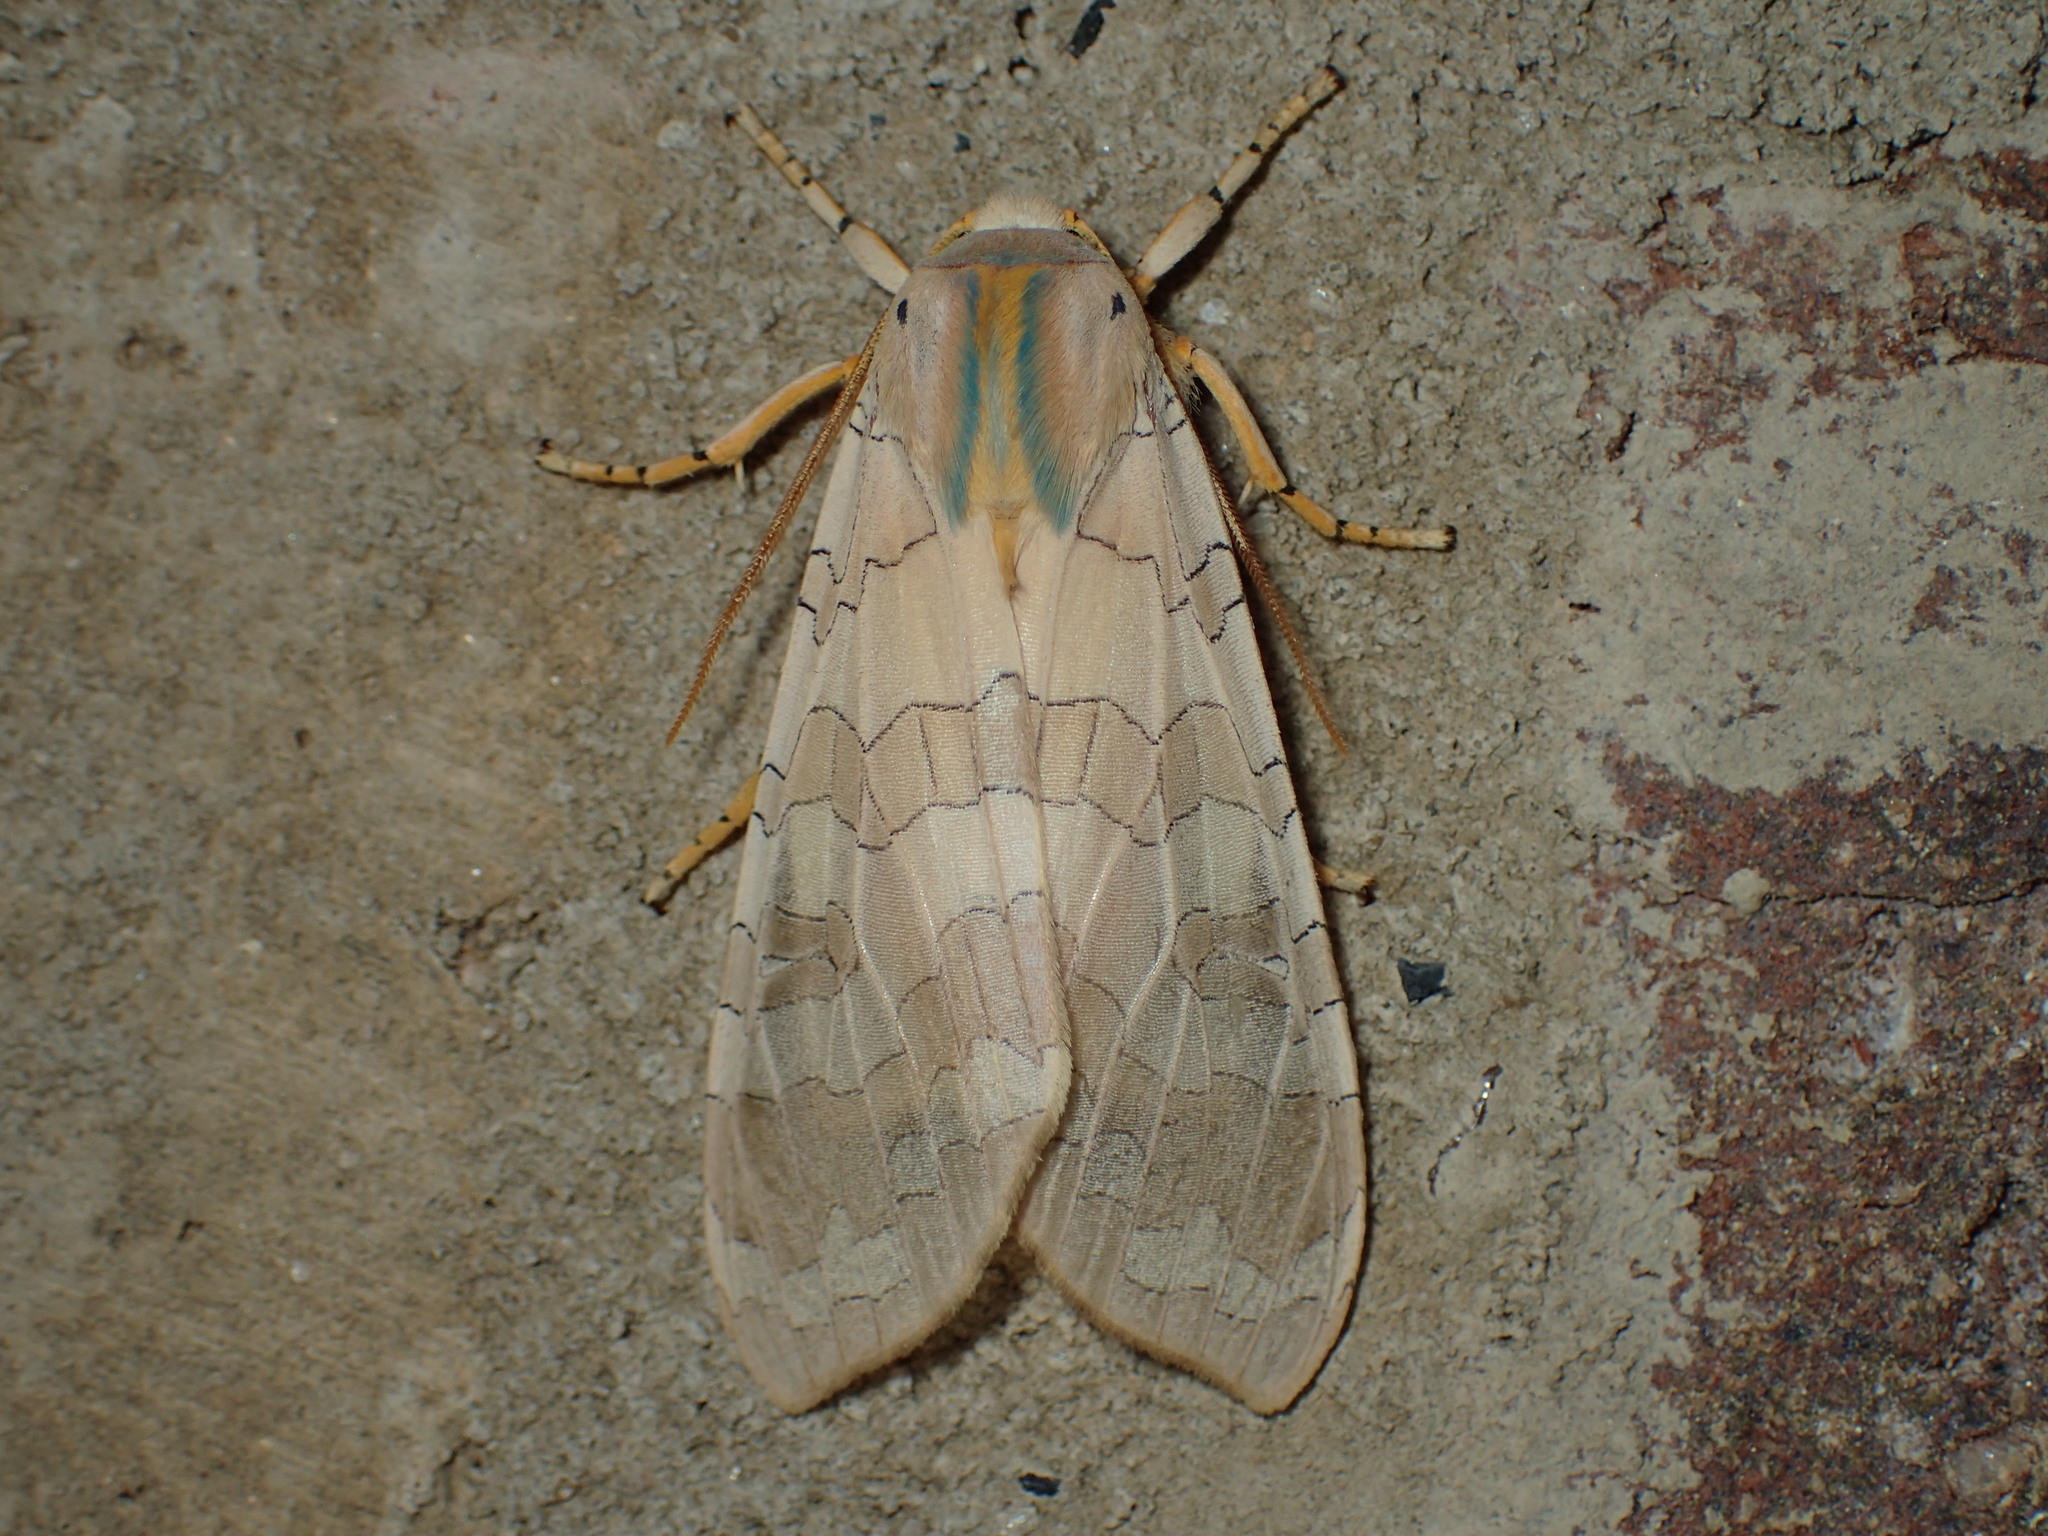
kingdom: Animalia
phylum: Arthropoda
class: Insecta
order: Lepidoptera
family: Erebidae
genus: Halysidota
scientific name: Halysidota
